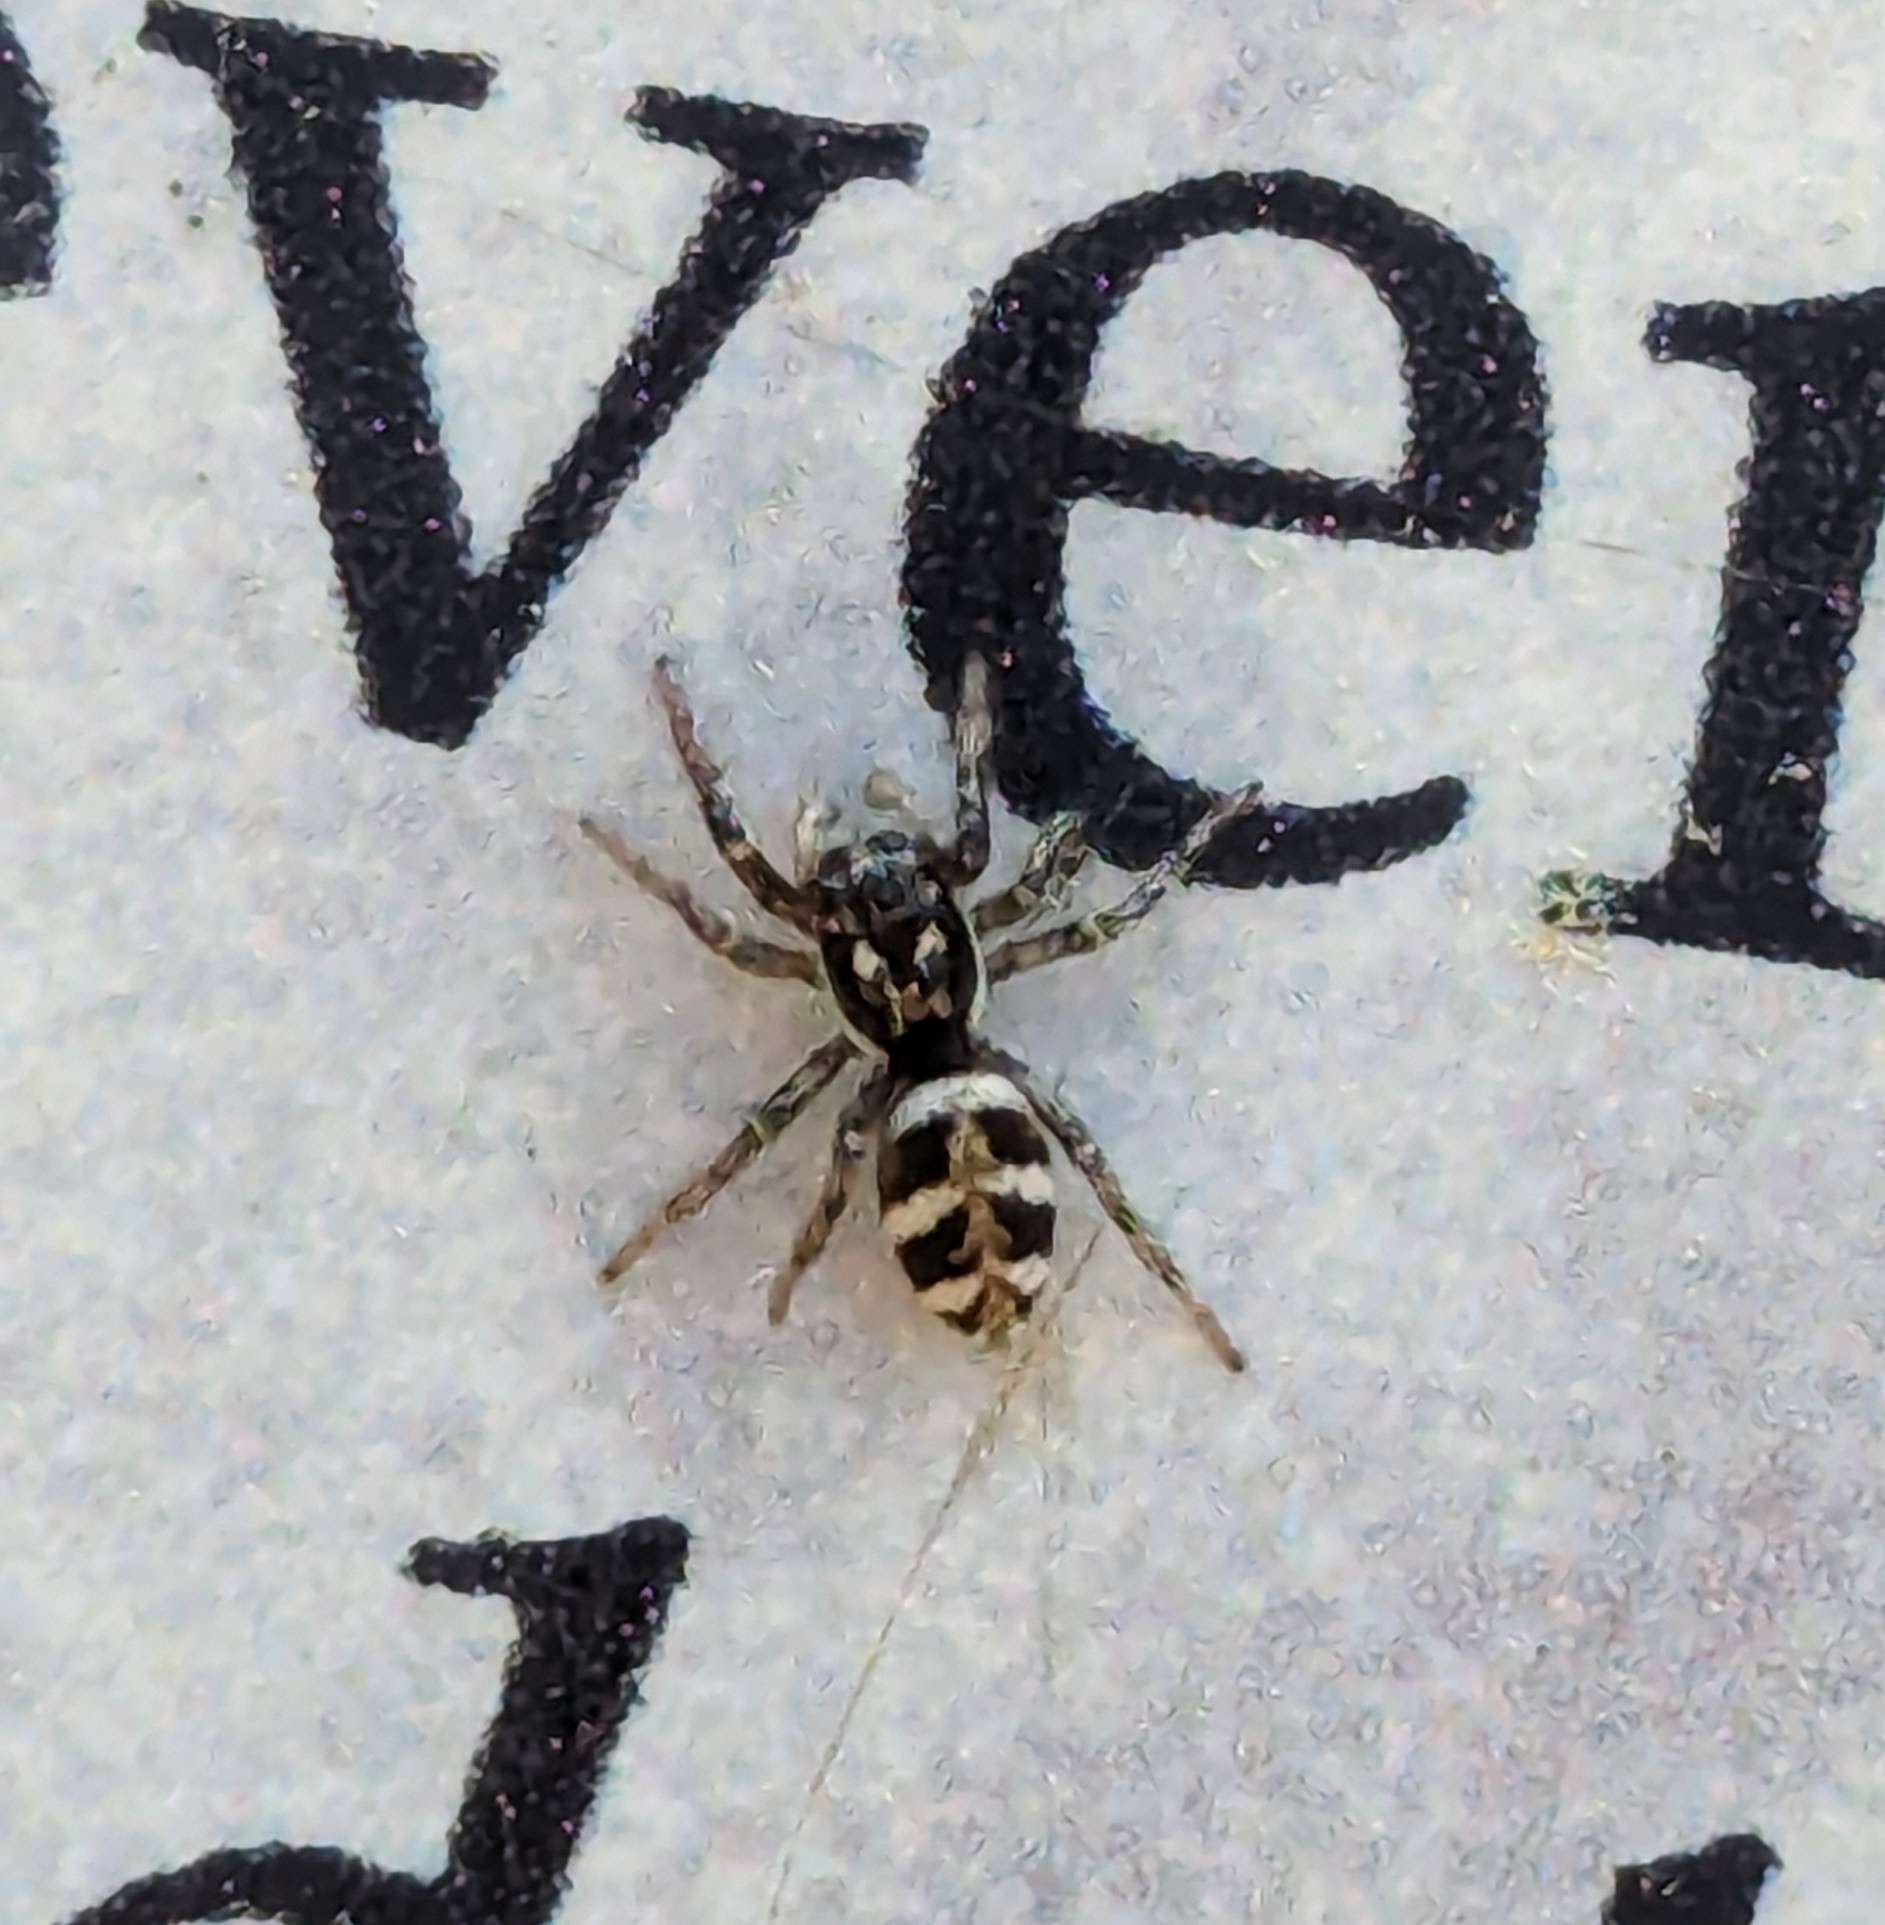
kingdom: Animalia
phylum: Arthropoda
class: Arachnida
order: Araneae
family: Salticidae
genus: Salticus
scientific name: Salticus scenicus
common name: Zebra jumper
